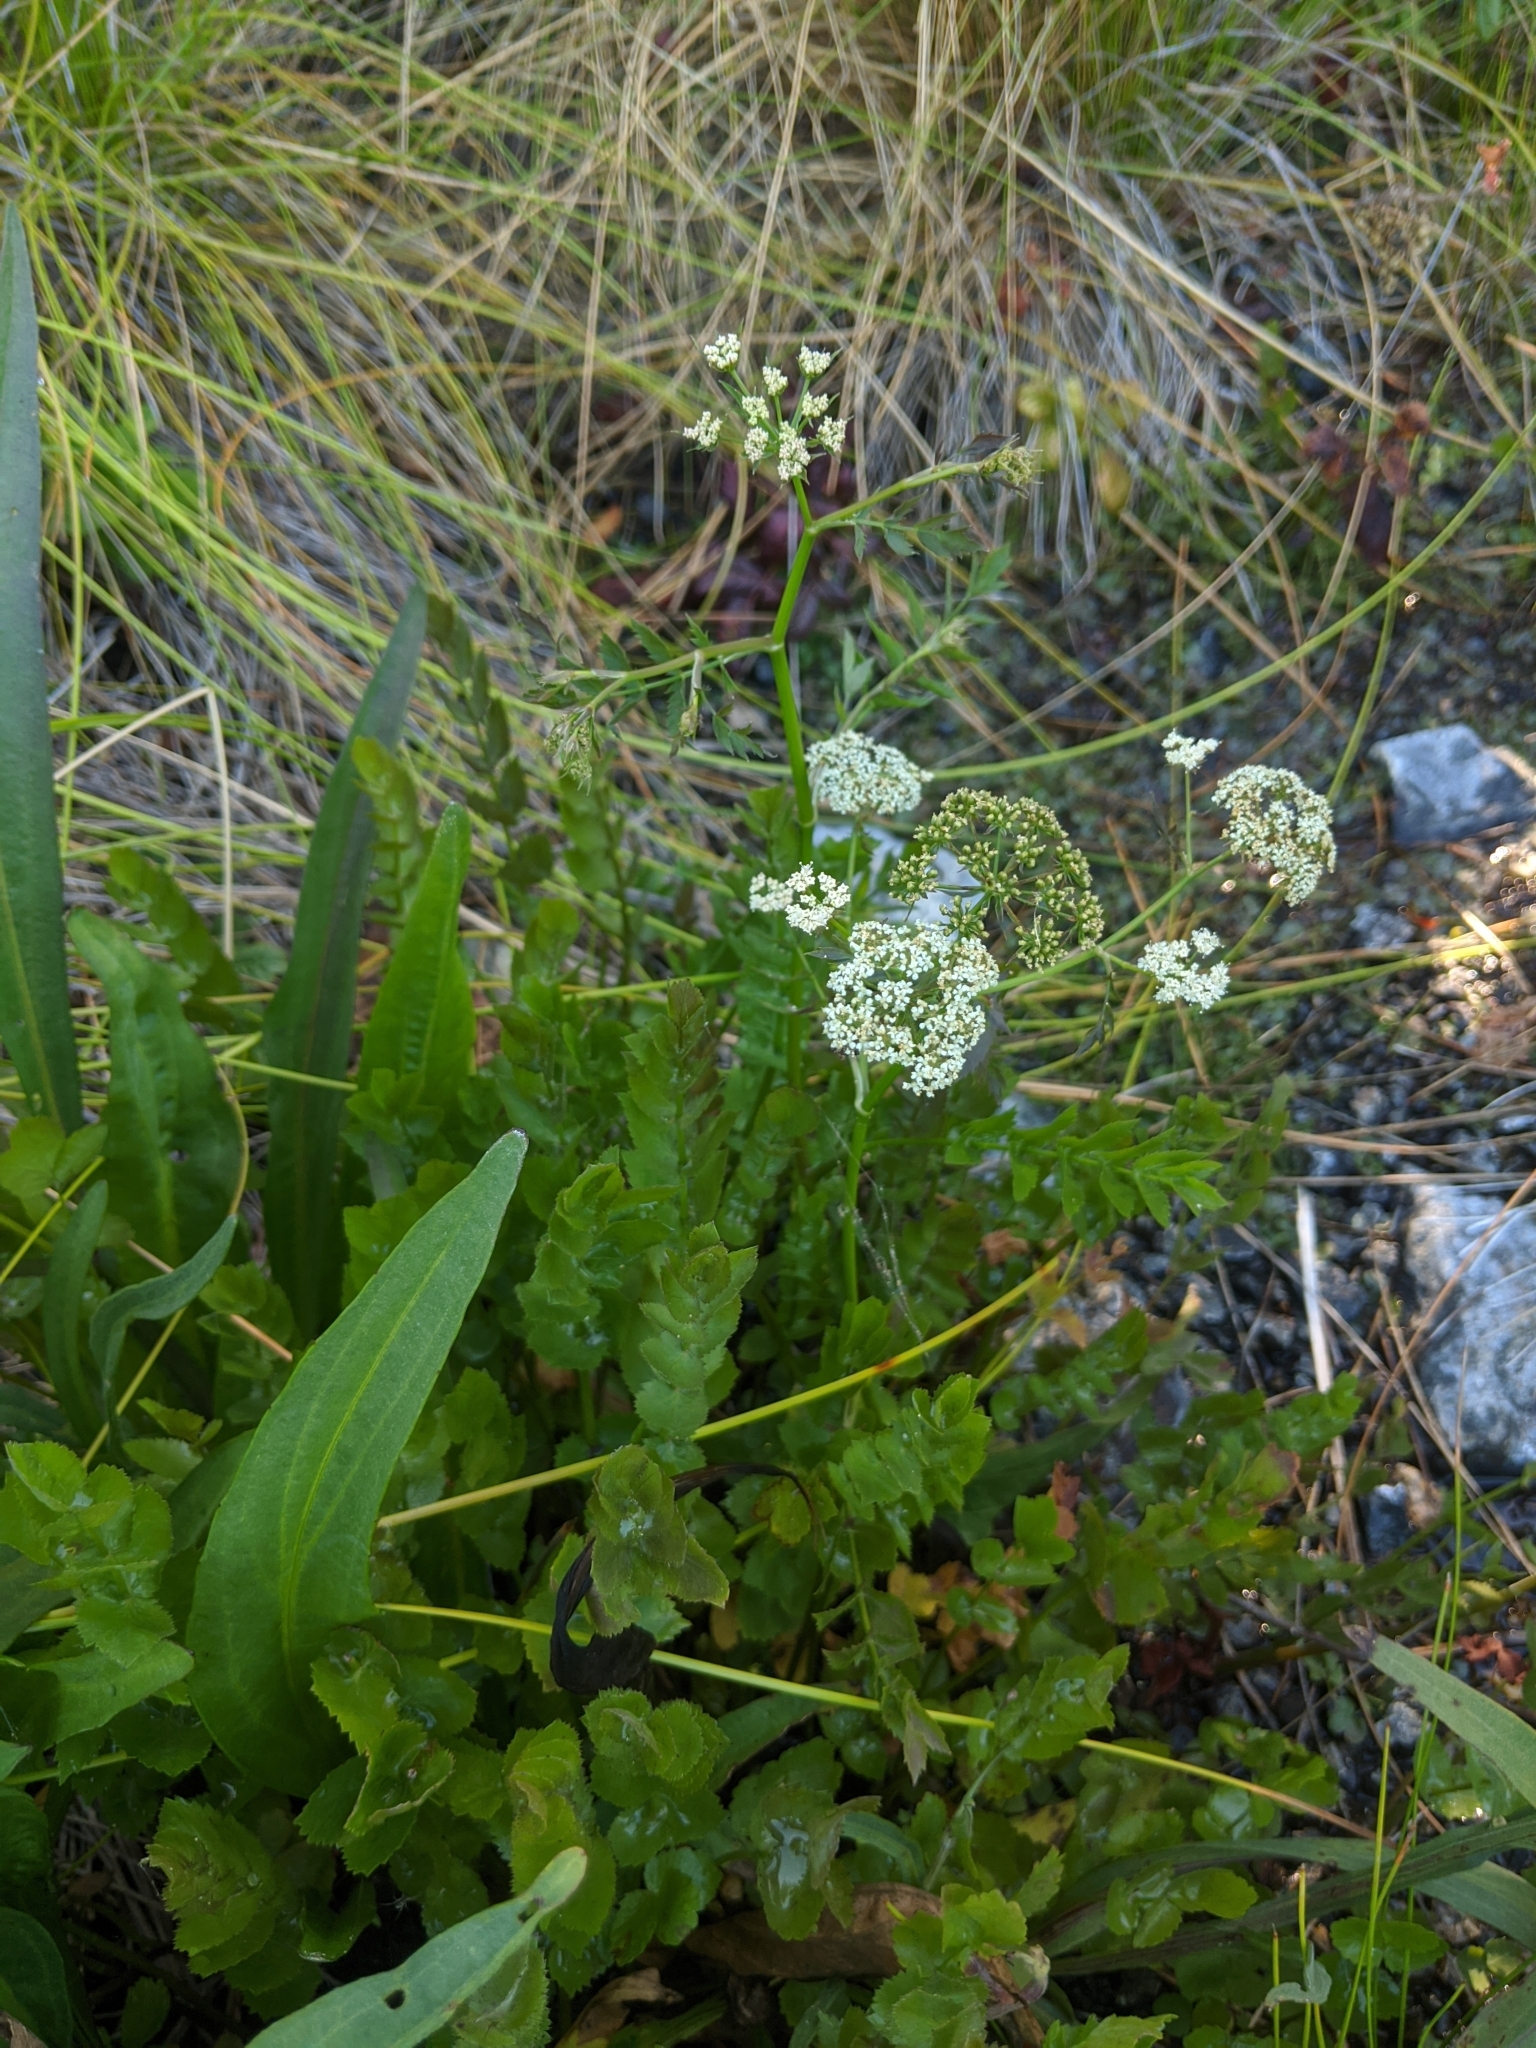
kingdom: Plantae
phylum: Tracheophyta
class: Magnoliopsida
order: Apiales
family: Apiaceae
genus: Berula
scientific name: Berula erecta
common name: Lesser water-parsnip
